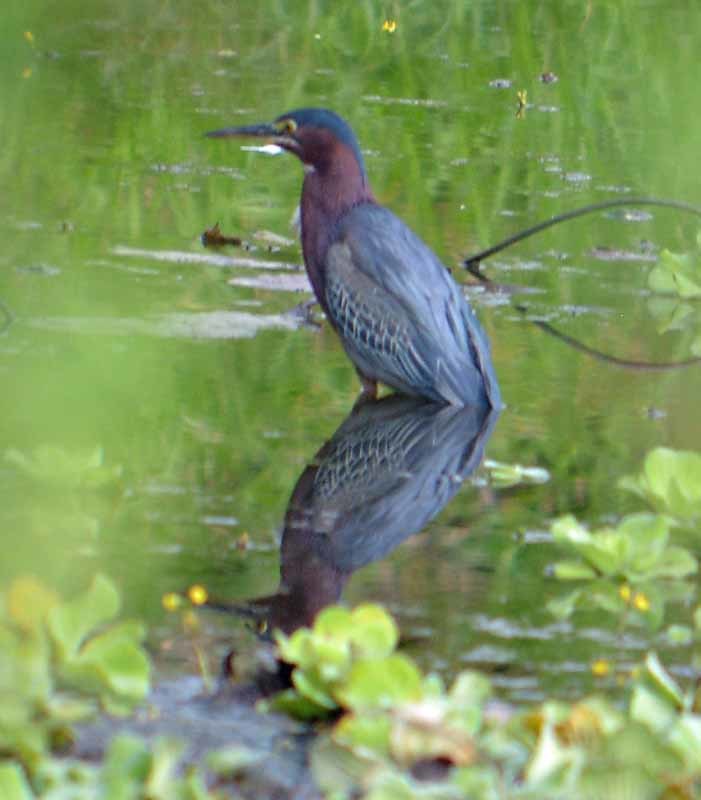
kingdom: Animalia
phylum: Chordata
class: Aves
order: Pelecaniformes
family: Ardeidae
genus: Butorides
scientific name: Butorides virescens
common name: Green heron
